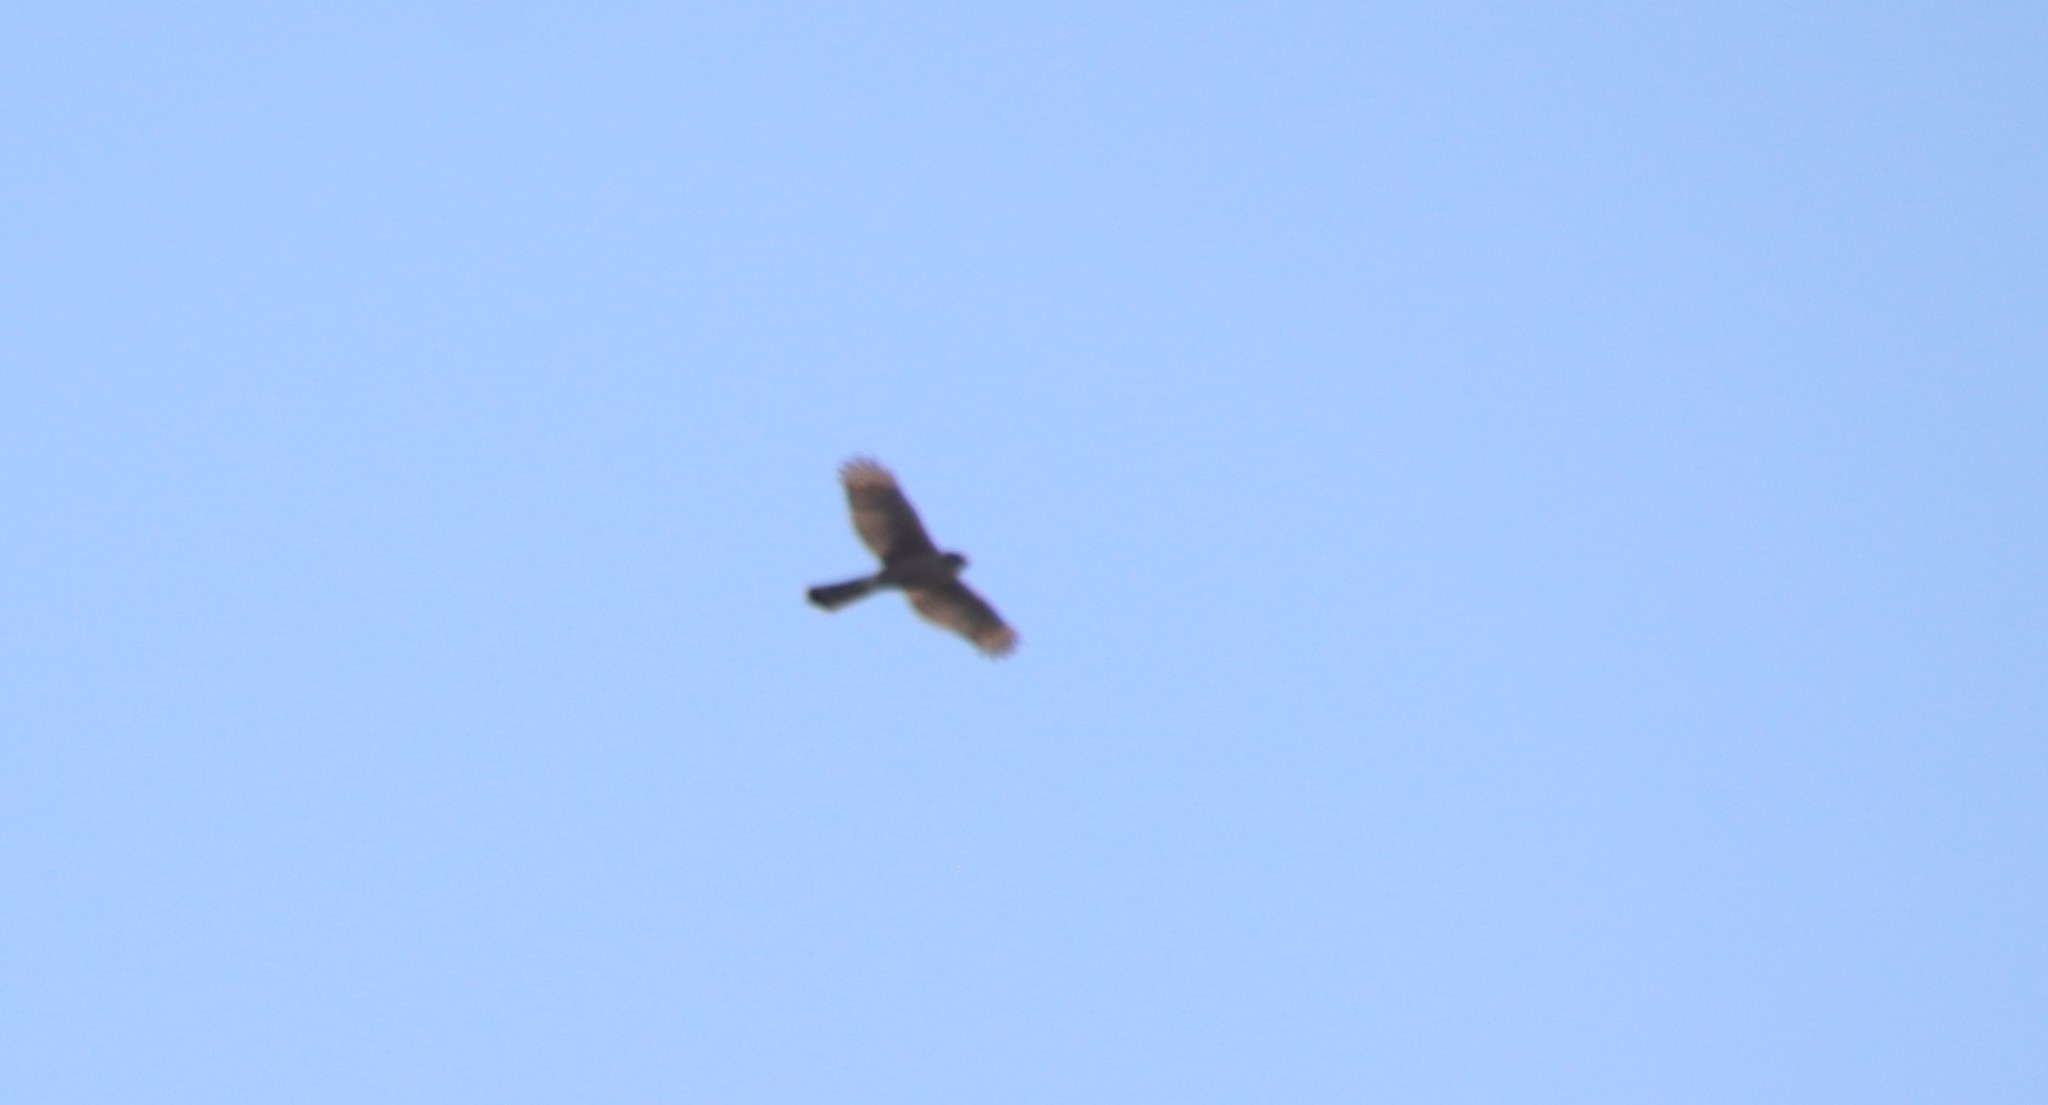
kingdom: Animalia
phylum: Chordata
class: Aves
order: Accipitriformes
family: Accipitridae
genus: Accipiter
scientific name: Accipiter cooperii
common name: Cooper's hawk
